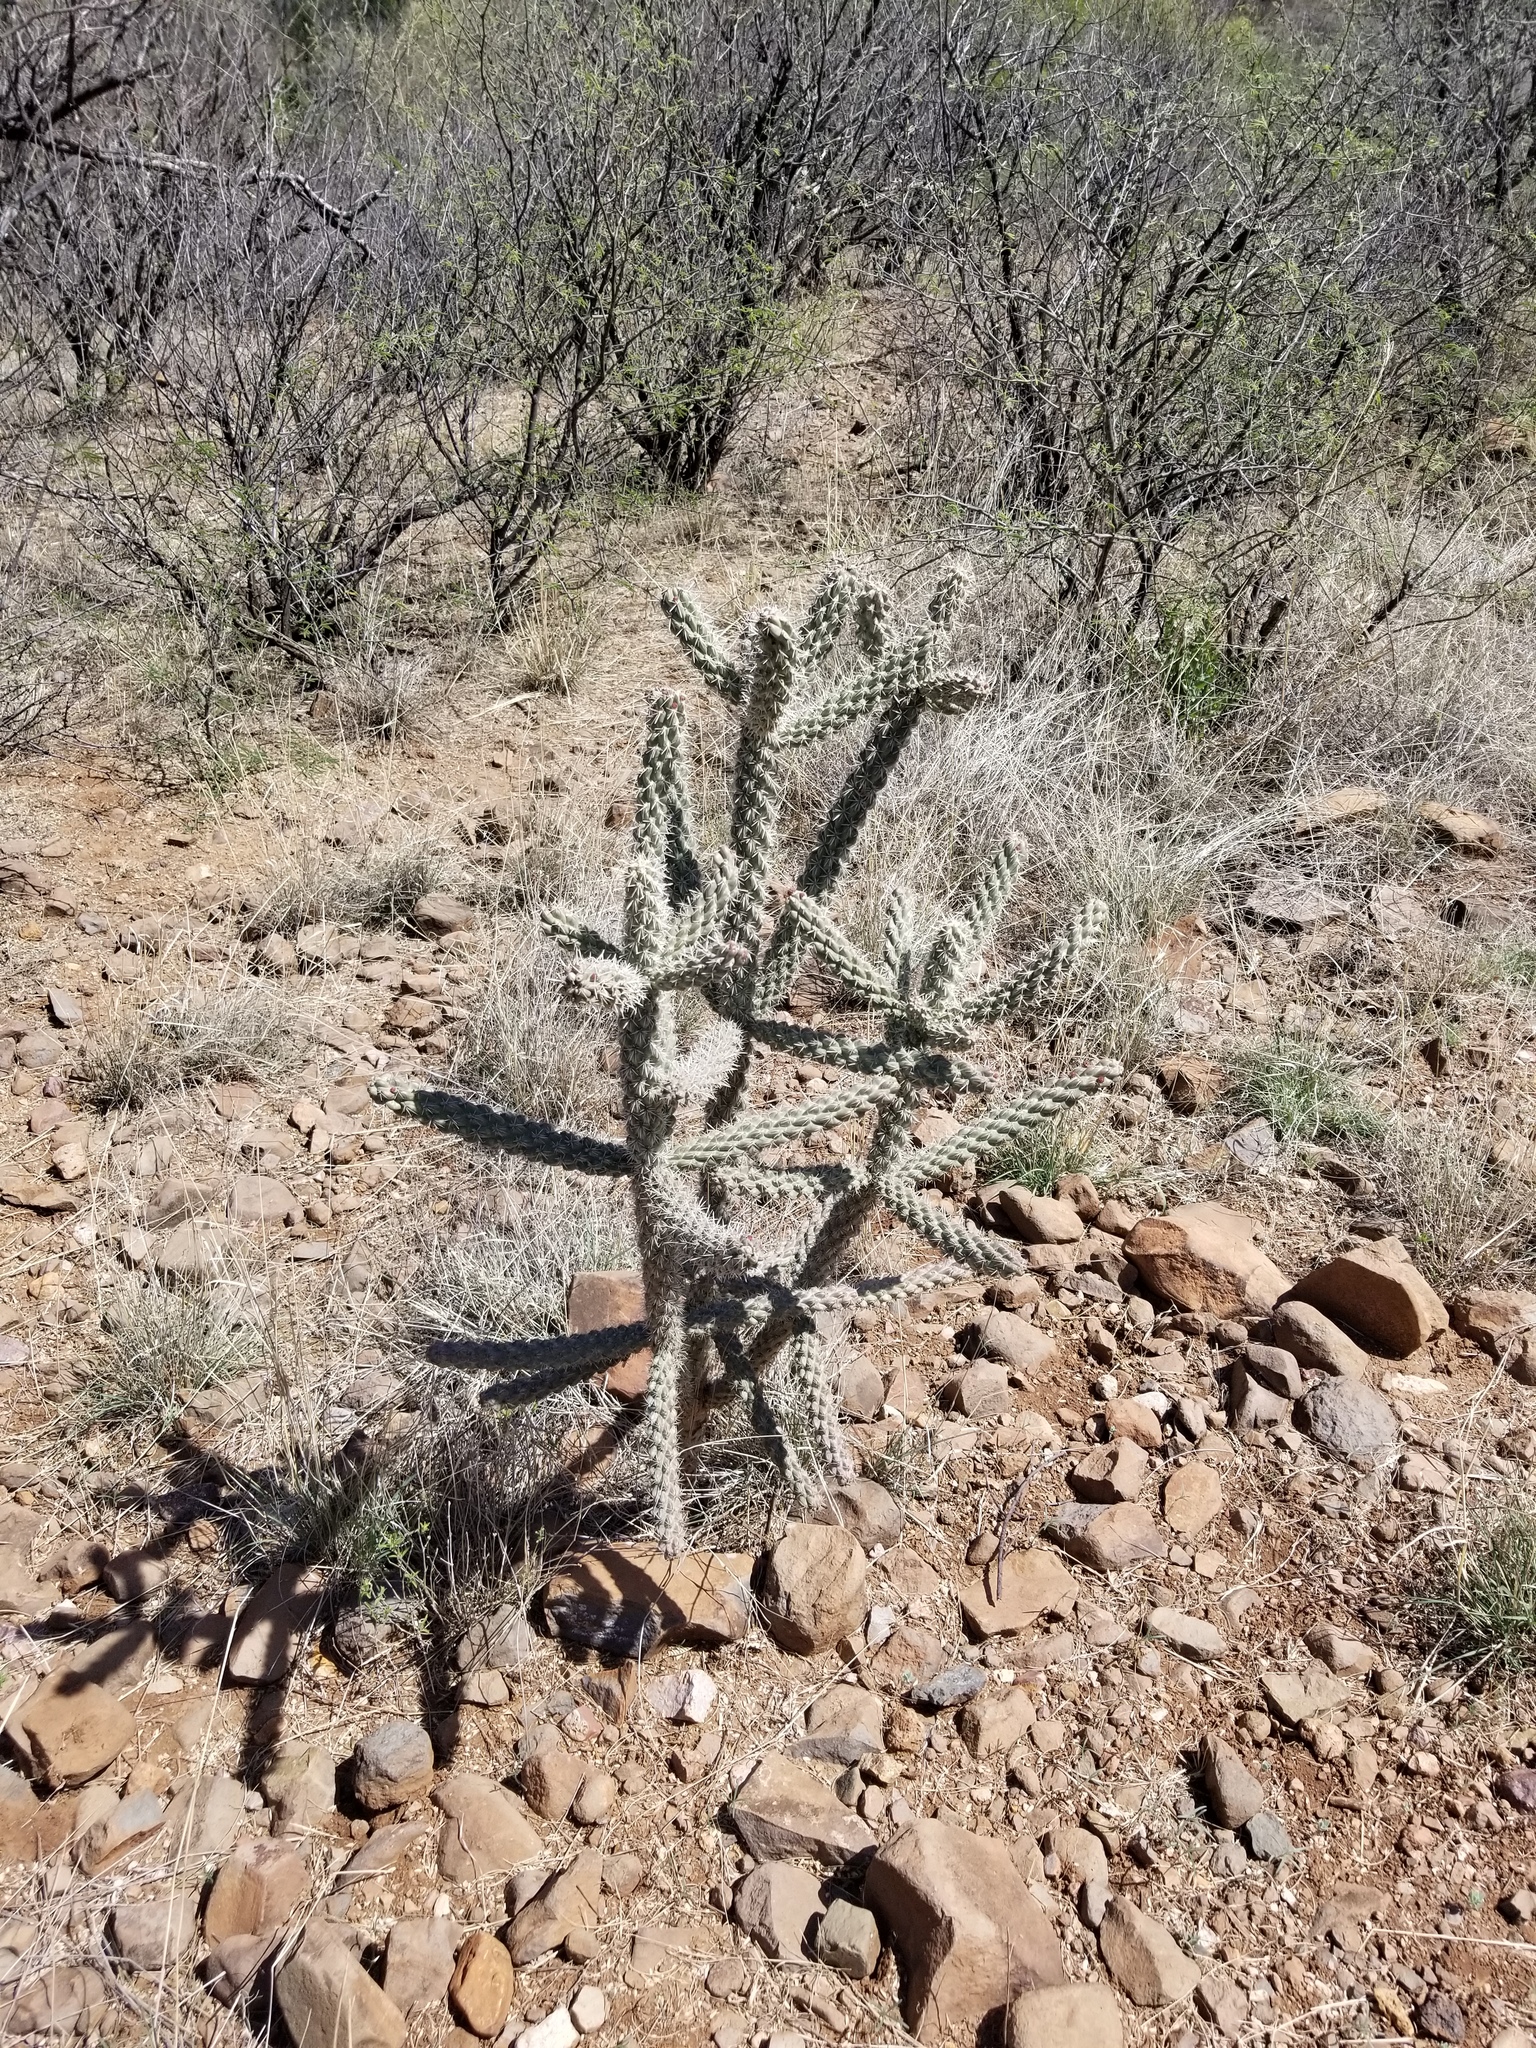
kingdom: Plantae
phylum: Tracheophyta
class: Magnoliopsida
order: Caryophyllales
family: Cactaceae
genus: Cylindropuntia
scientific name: Cylindropuntia imbricata
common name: Candelabrum cactus
